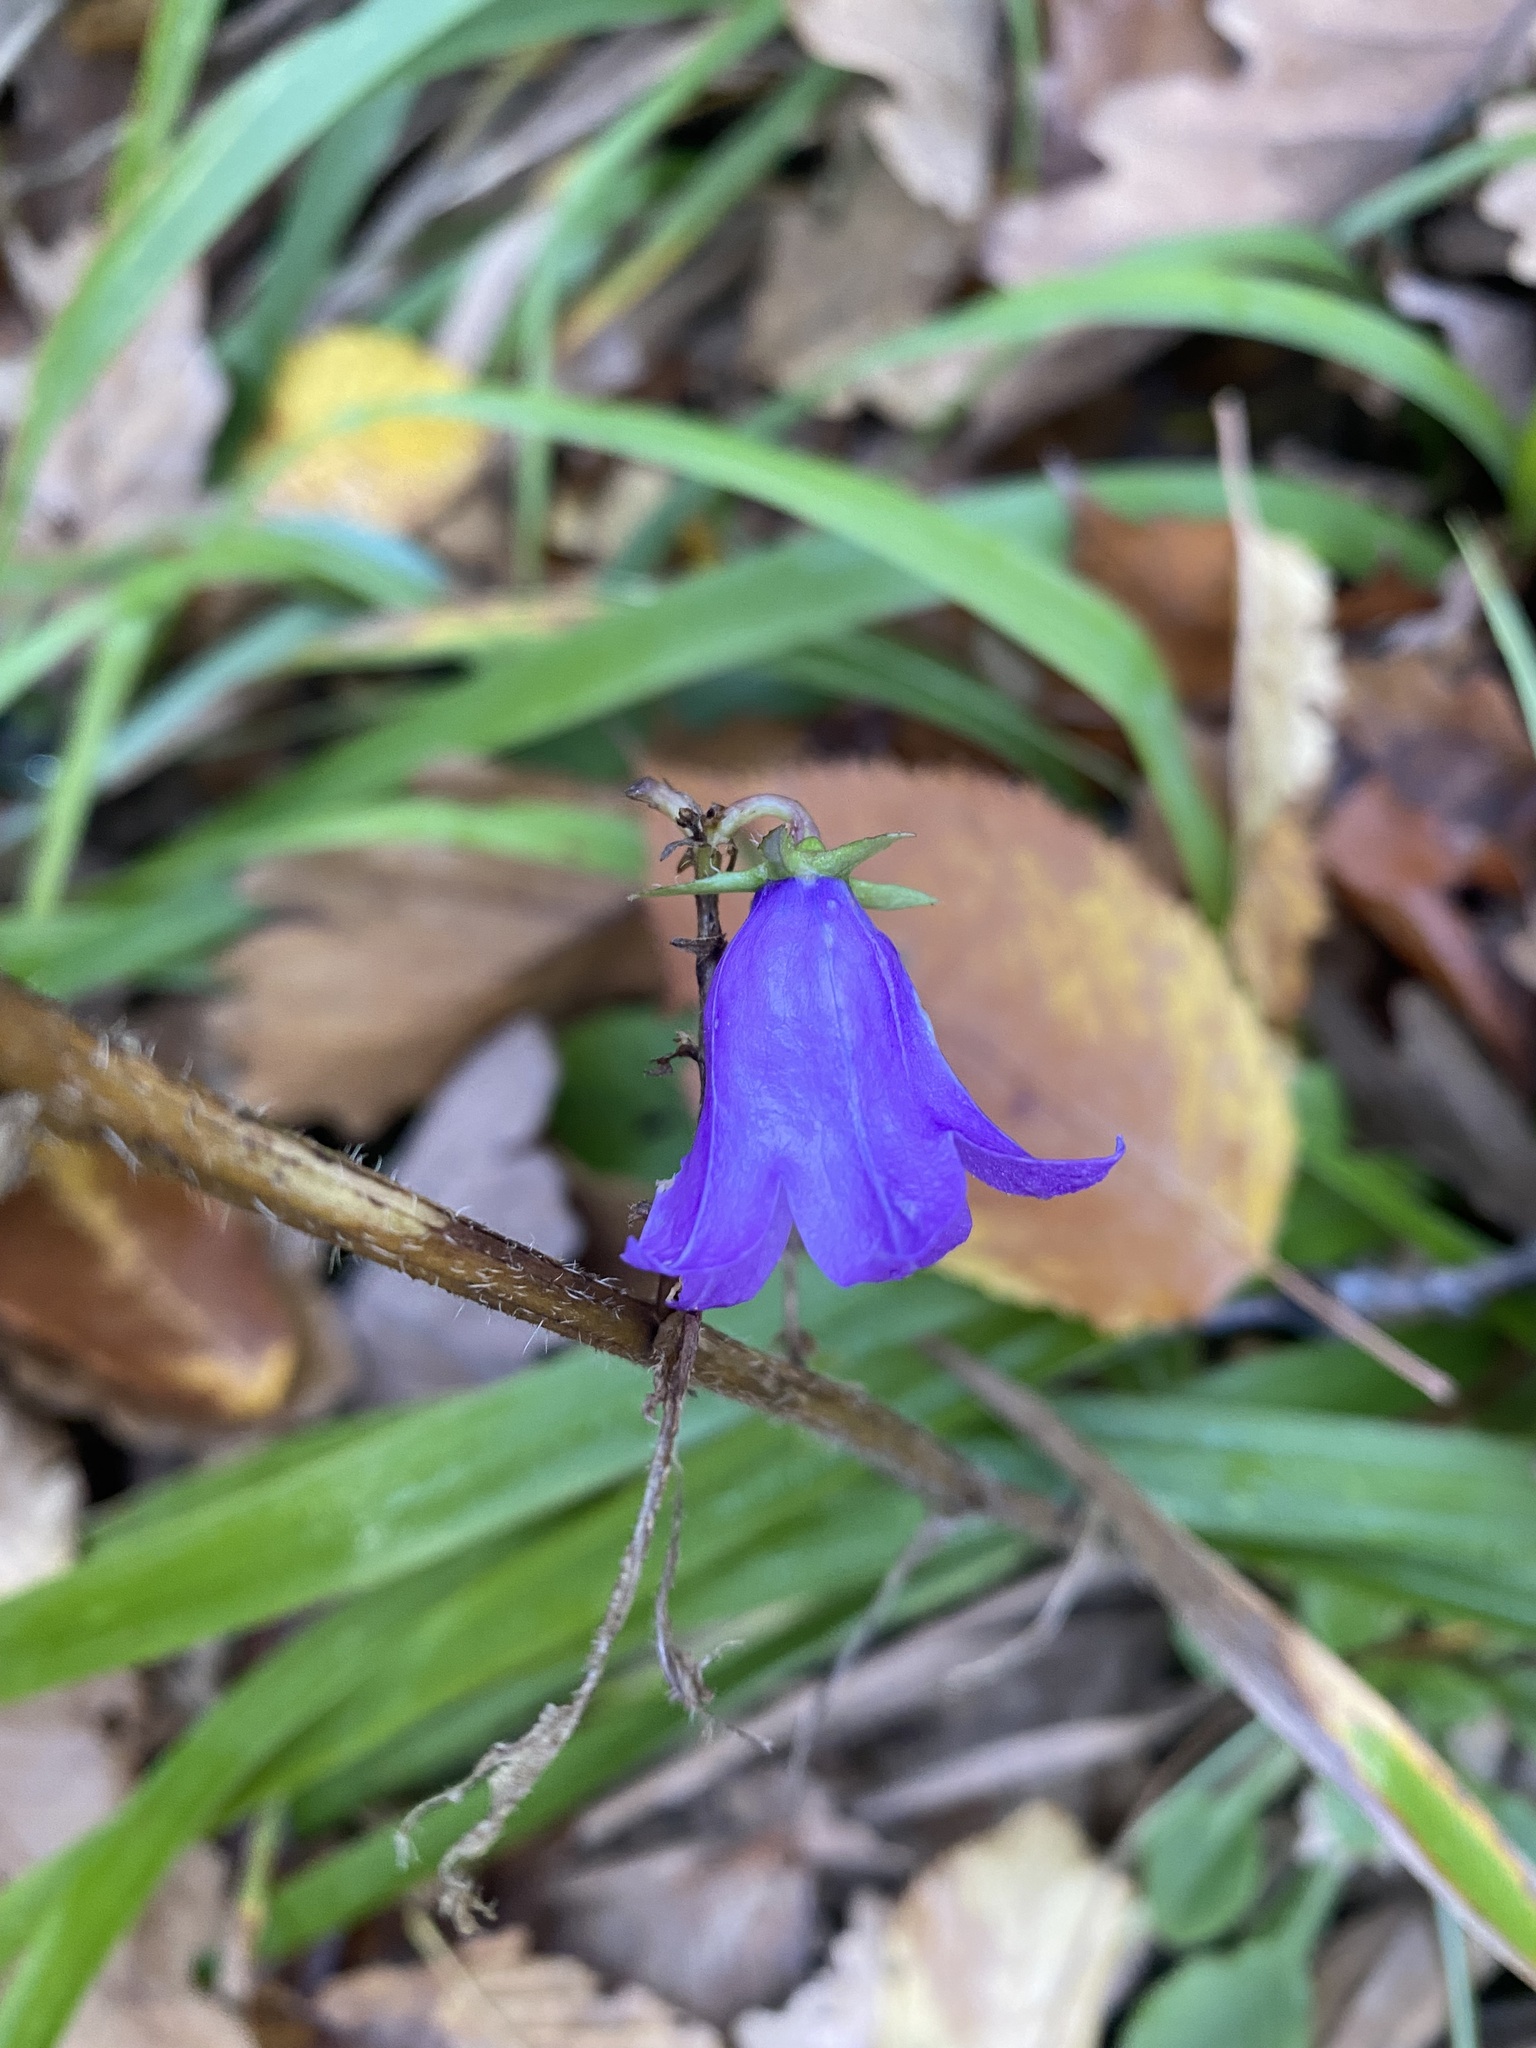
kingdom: Plantae
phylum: Tracheophyta
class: Magnoliopsida
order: Asterales
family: Campanulaceae
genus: Campanula
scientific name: Campanula rapunculoides
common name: Creeping bellflower
